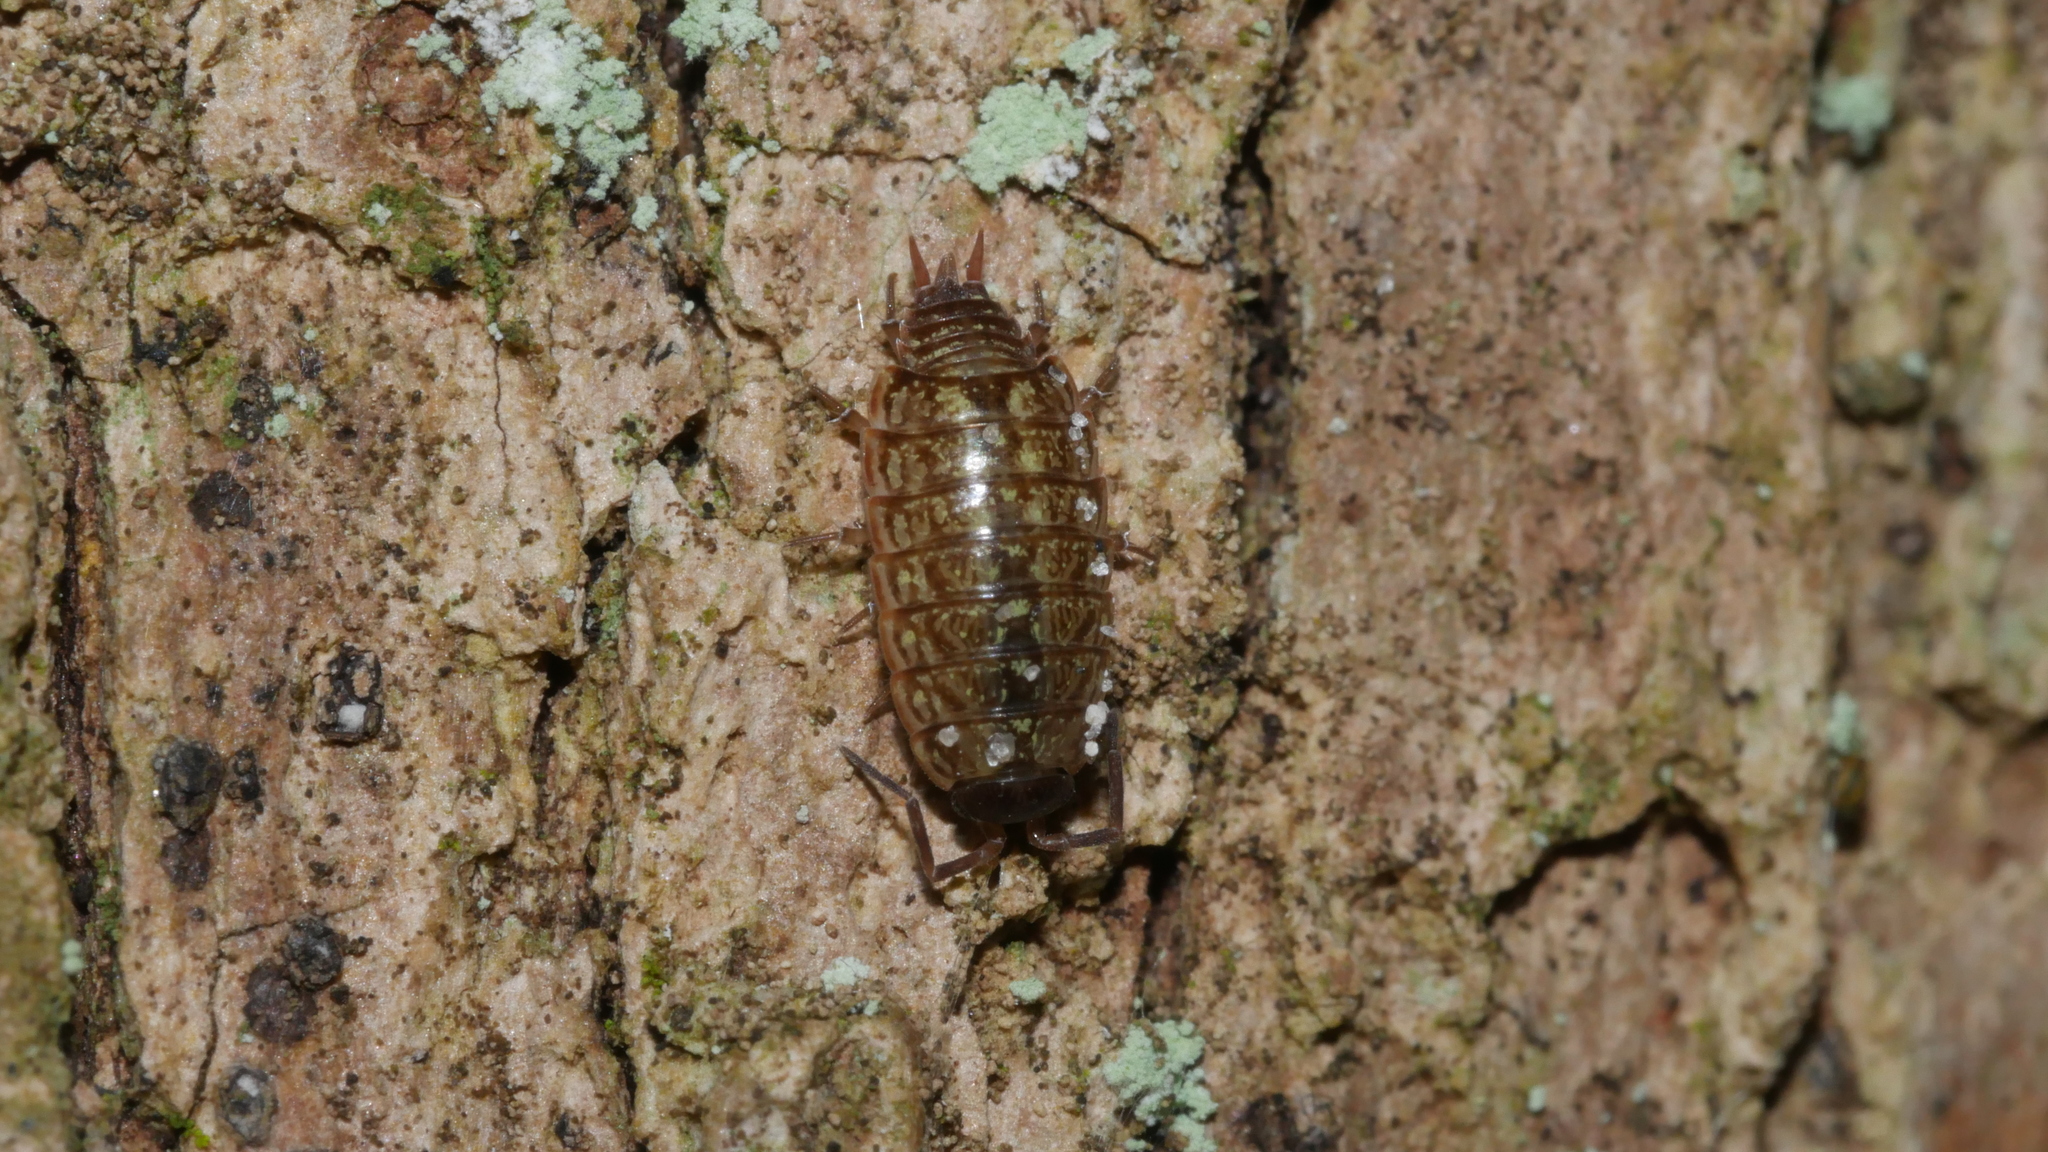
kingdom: Animalia
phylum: Arthropoda
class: Malacostraca
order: Isopoda
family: Philosciidae
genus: Philoscia
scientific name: Philoscia muscorum
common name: Common striped woodlouse
